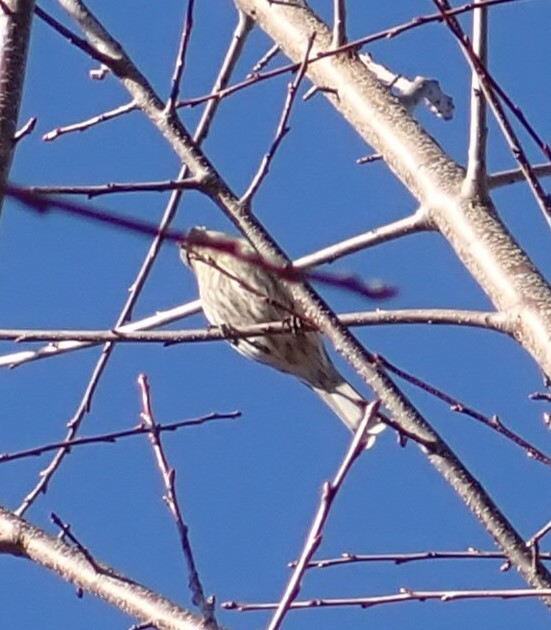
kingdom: Animalia
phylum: Chordata
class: Aves
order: Passeriformes
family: Fringillidae
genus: Haemorhous
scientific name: Haemorhous mexicanus
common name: House finch
